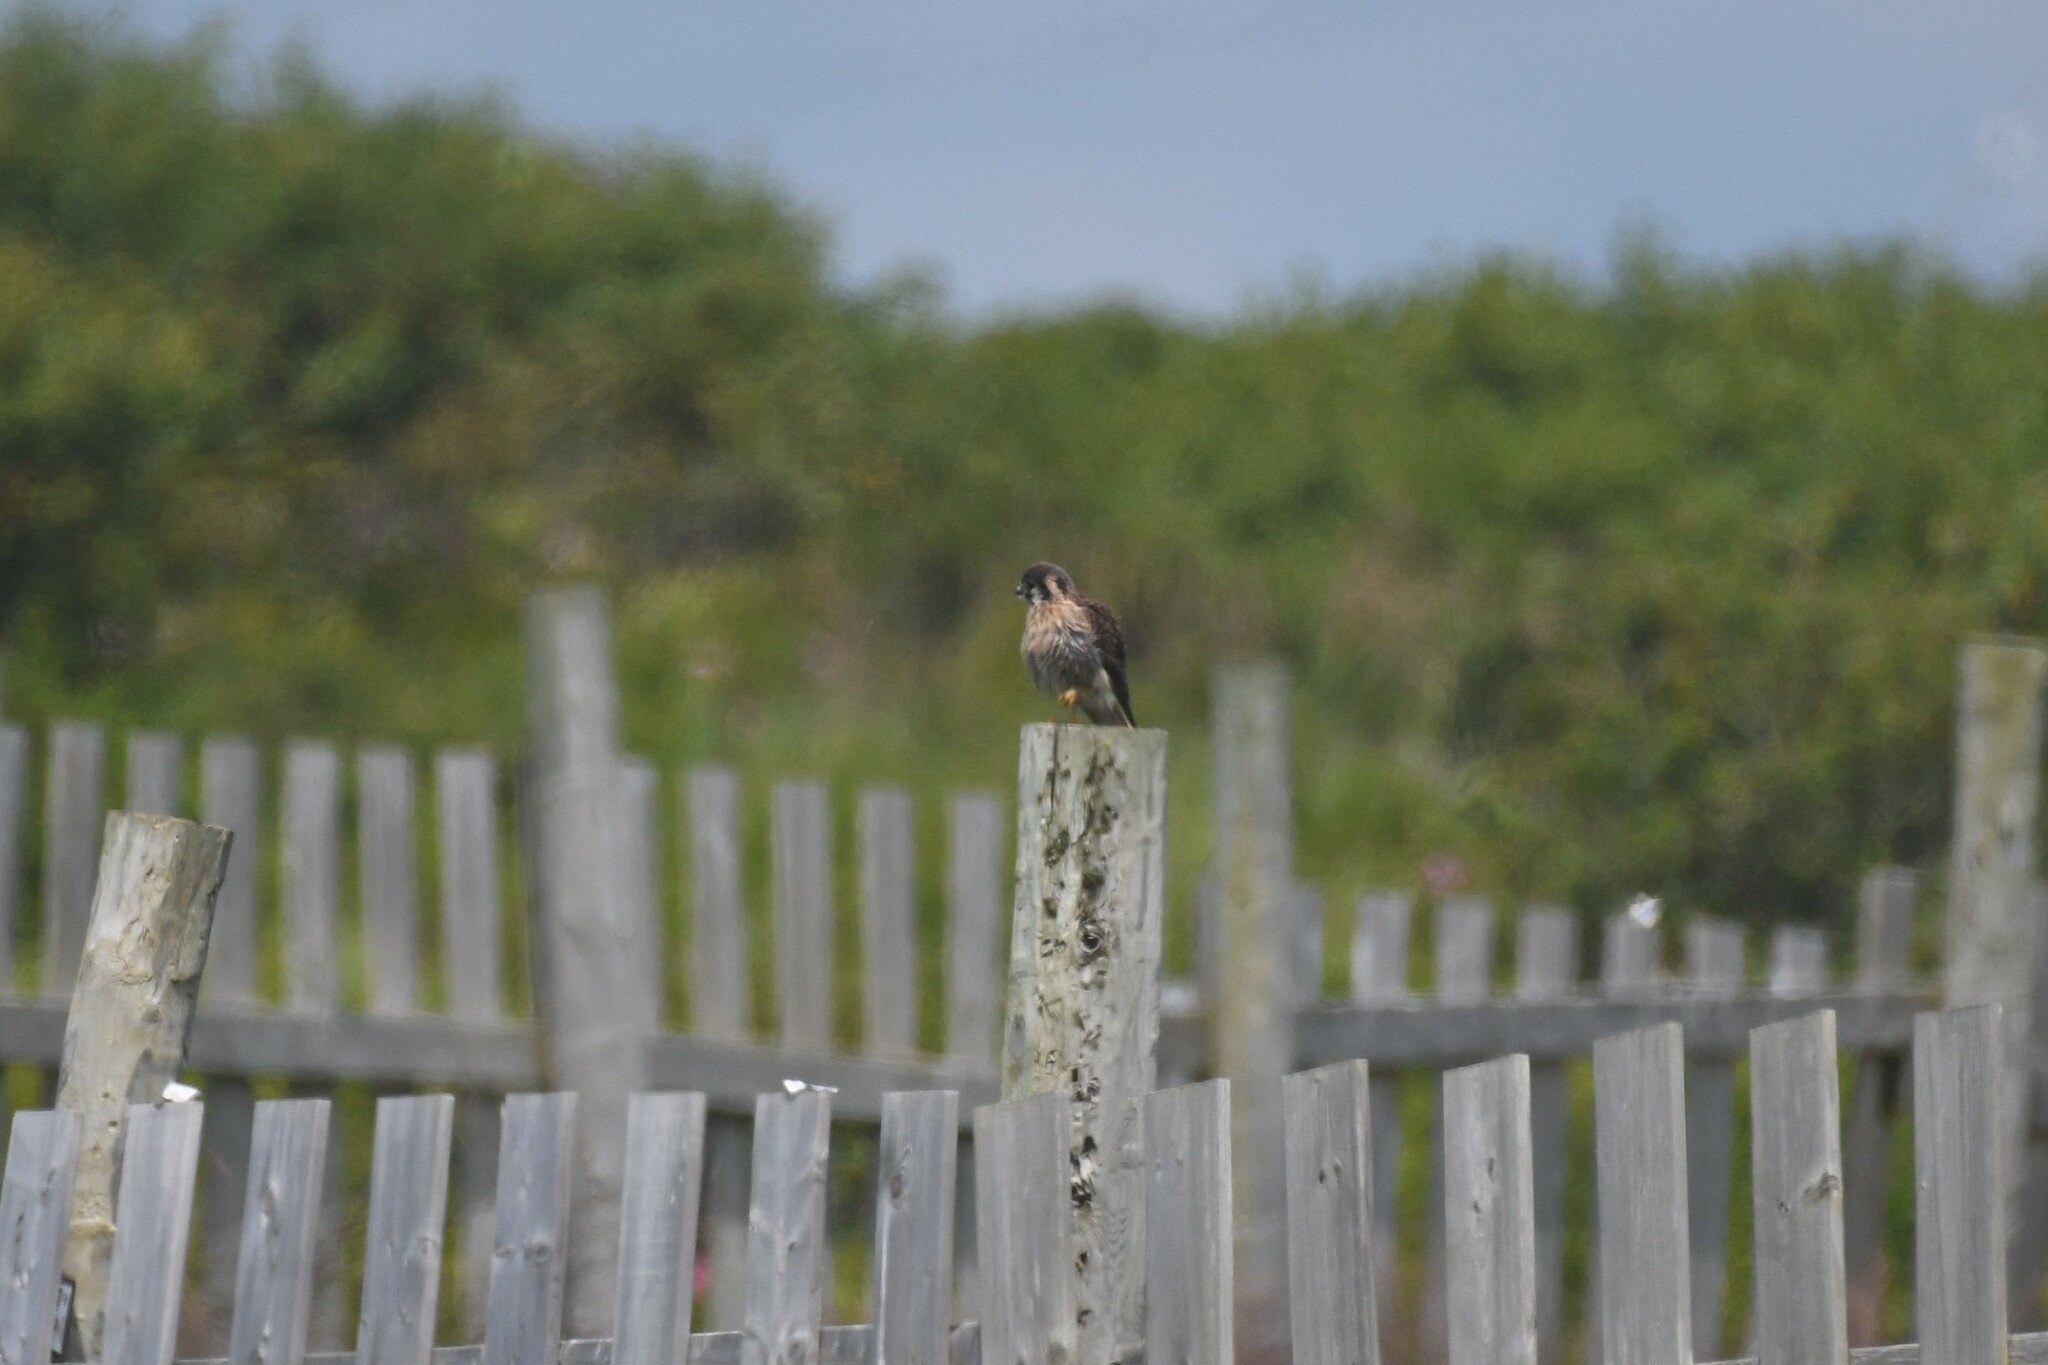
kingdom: Animalia
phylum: Chordata
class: Aves
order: Falconiformes
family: Falconidae
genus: Falco
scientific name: Falco sparverius
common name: American kestrel
